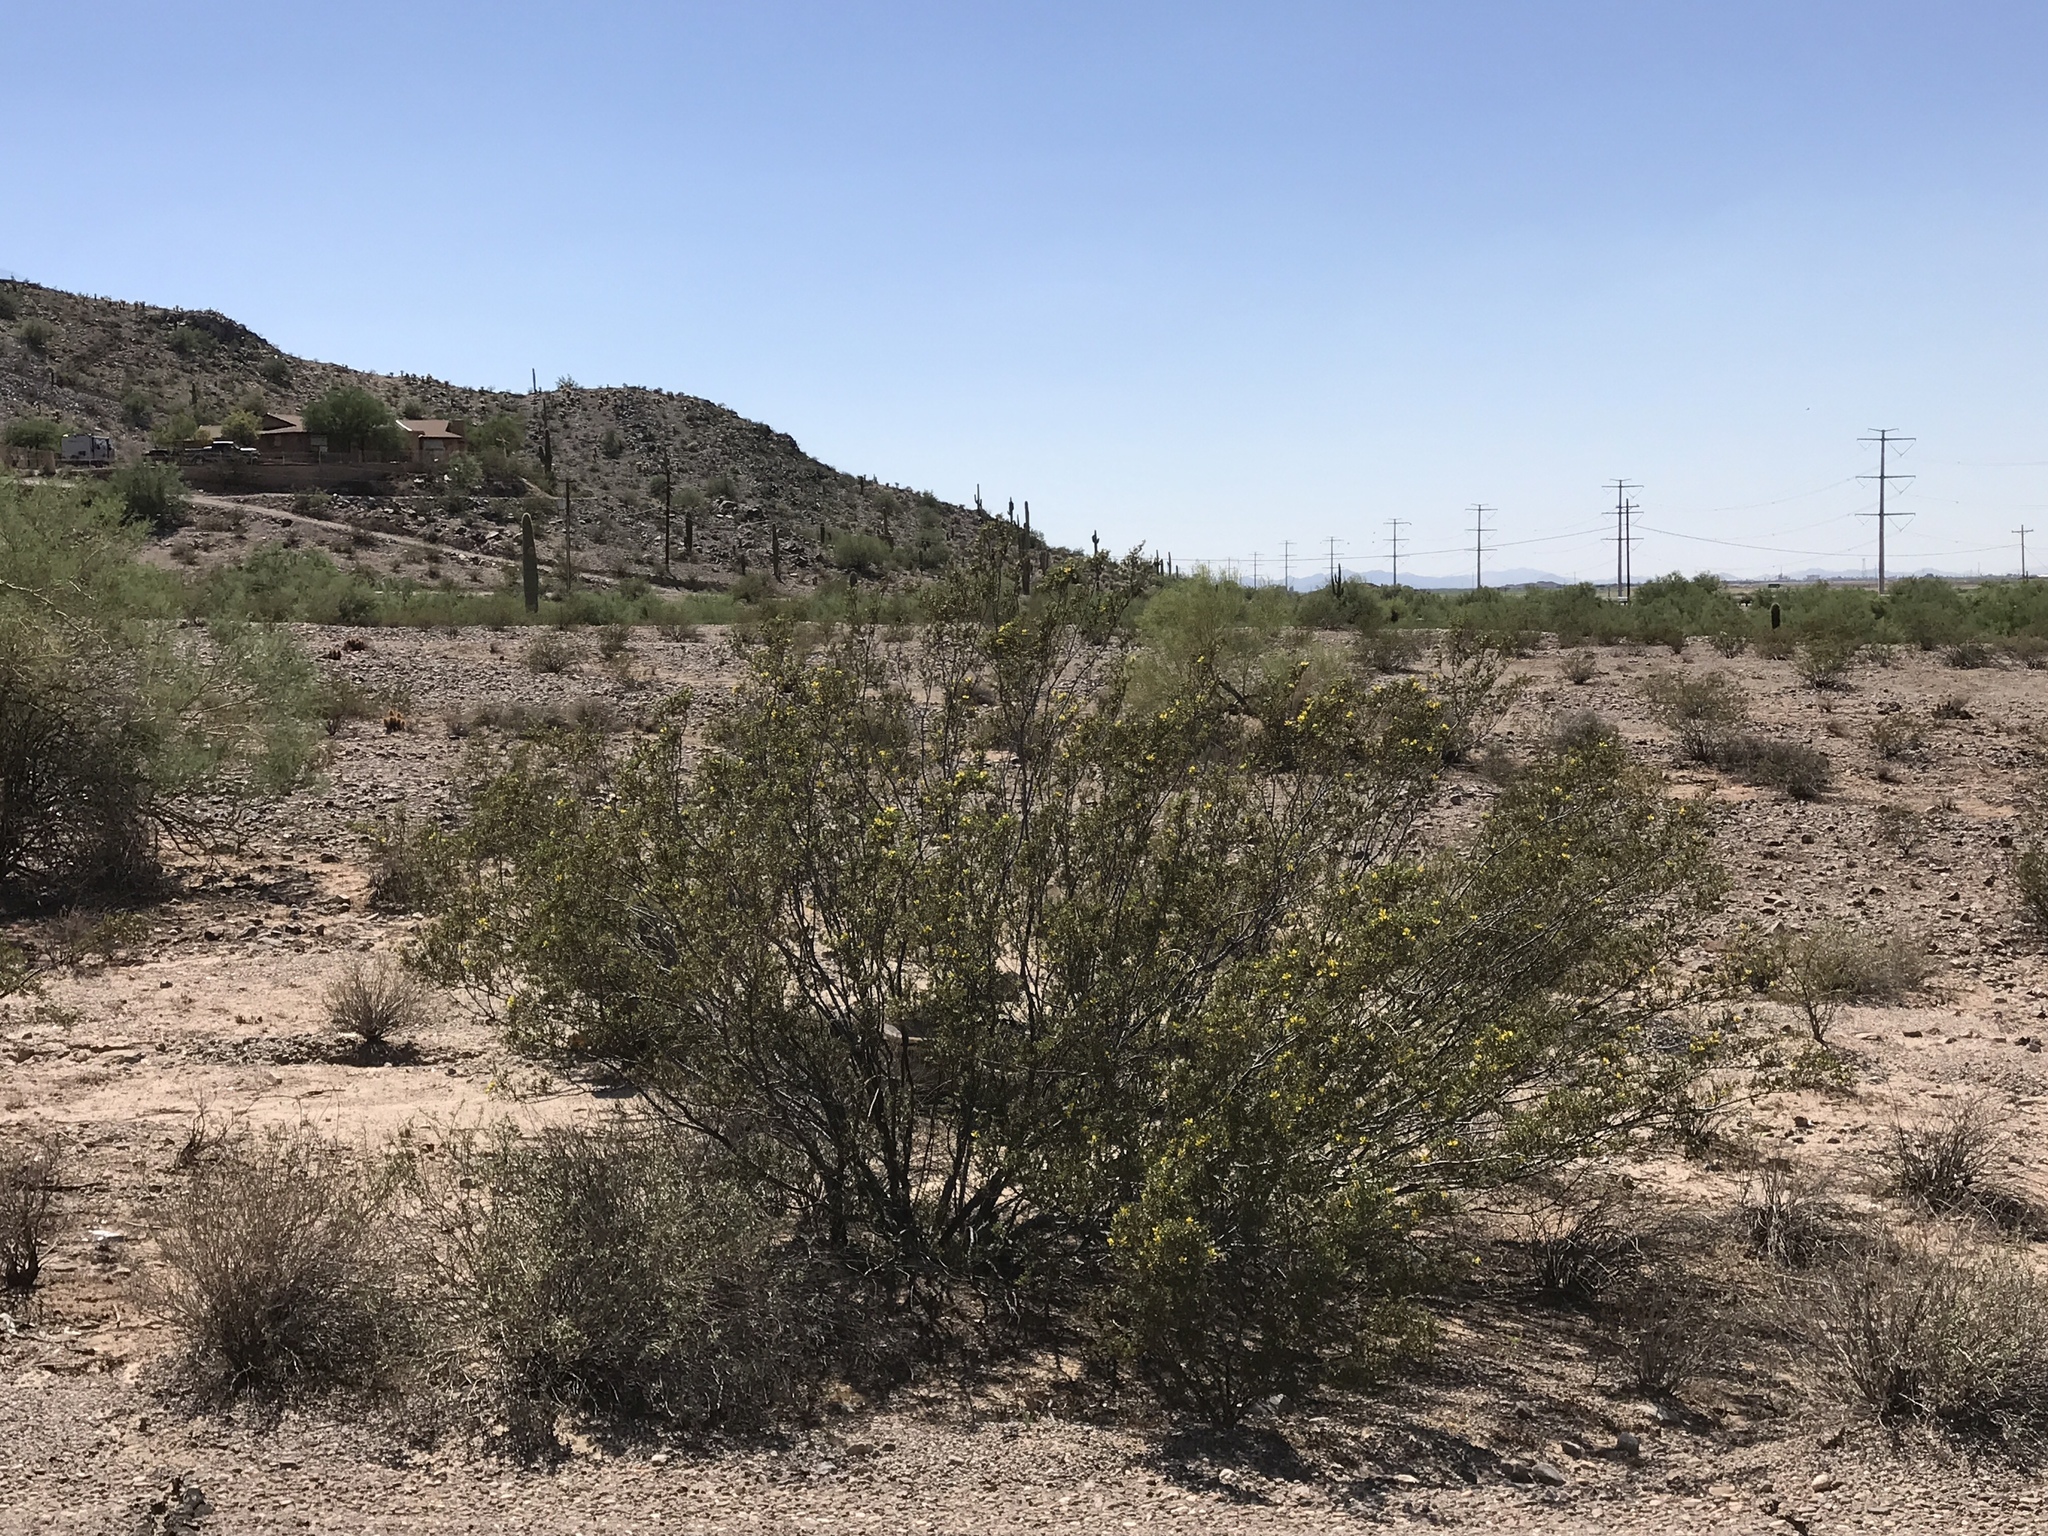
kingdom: Plantae
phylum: Tracheophyta
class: Magnoliopsida
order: Zygophyllales
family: Zygophyllaceae
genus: Larrea
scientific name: Larrea tridentata
